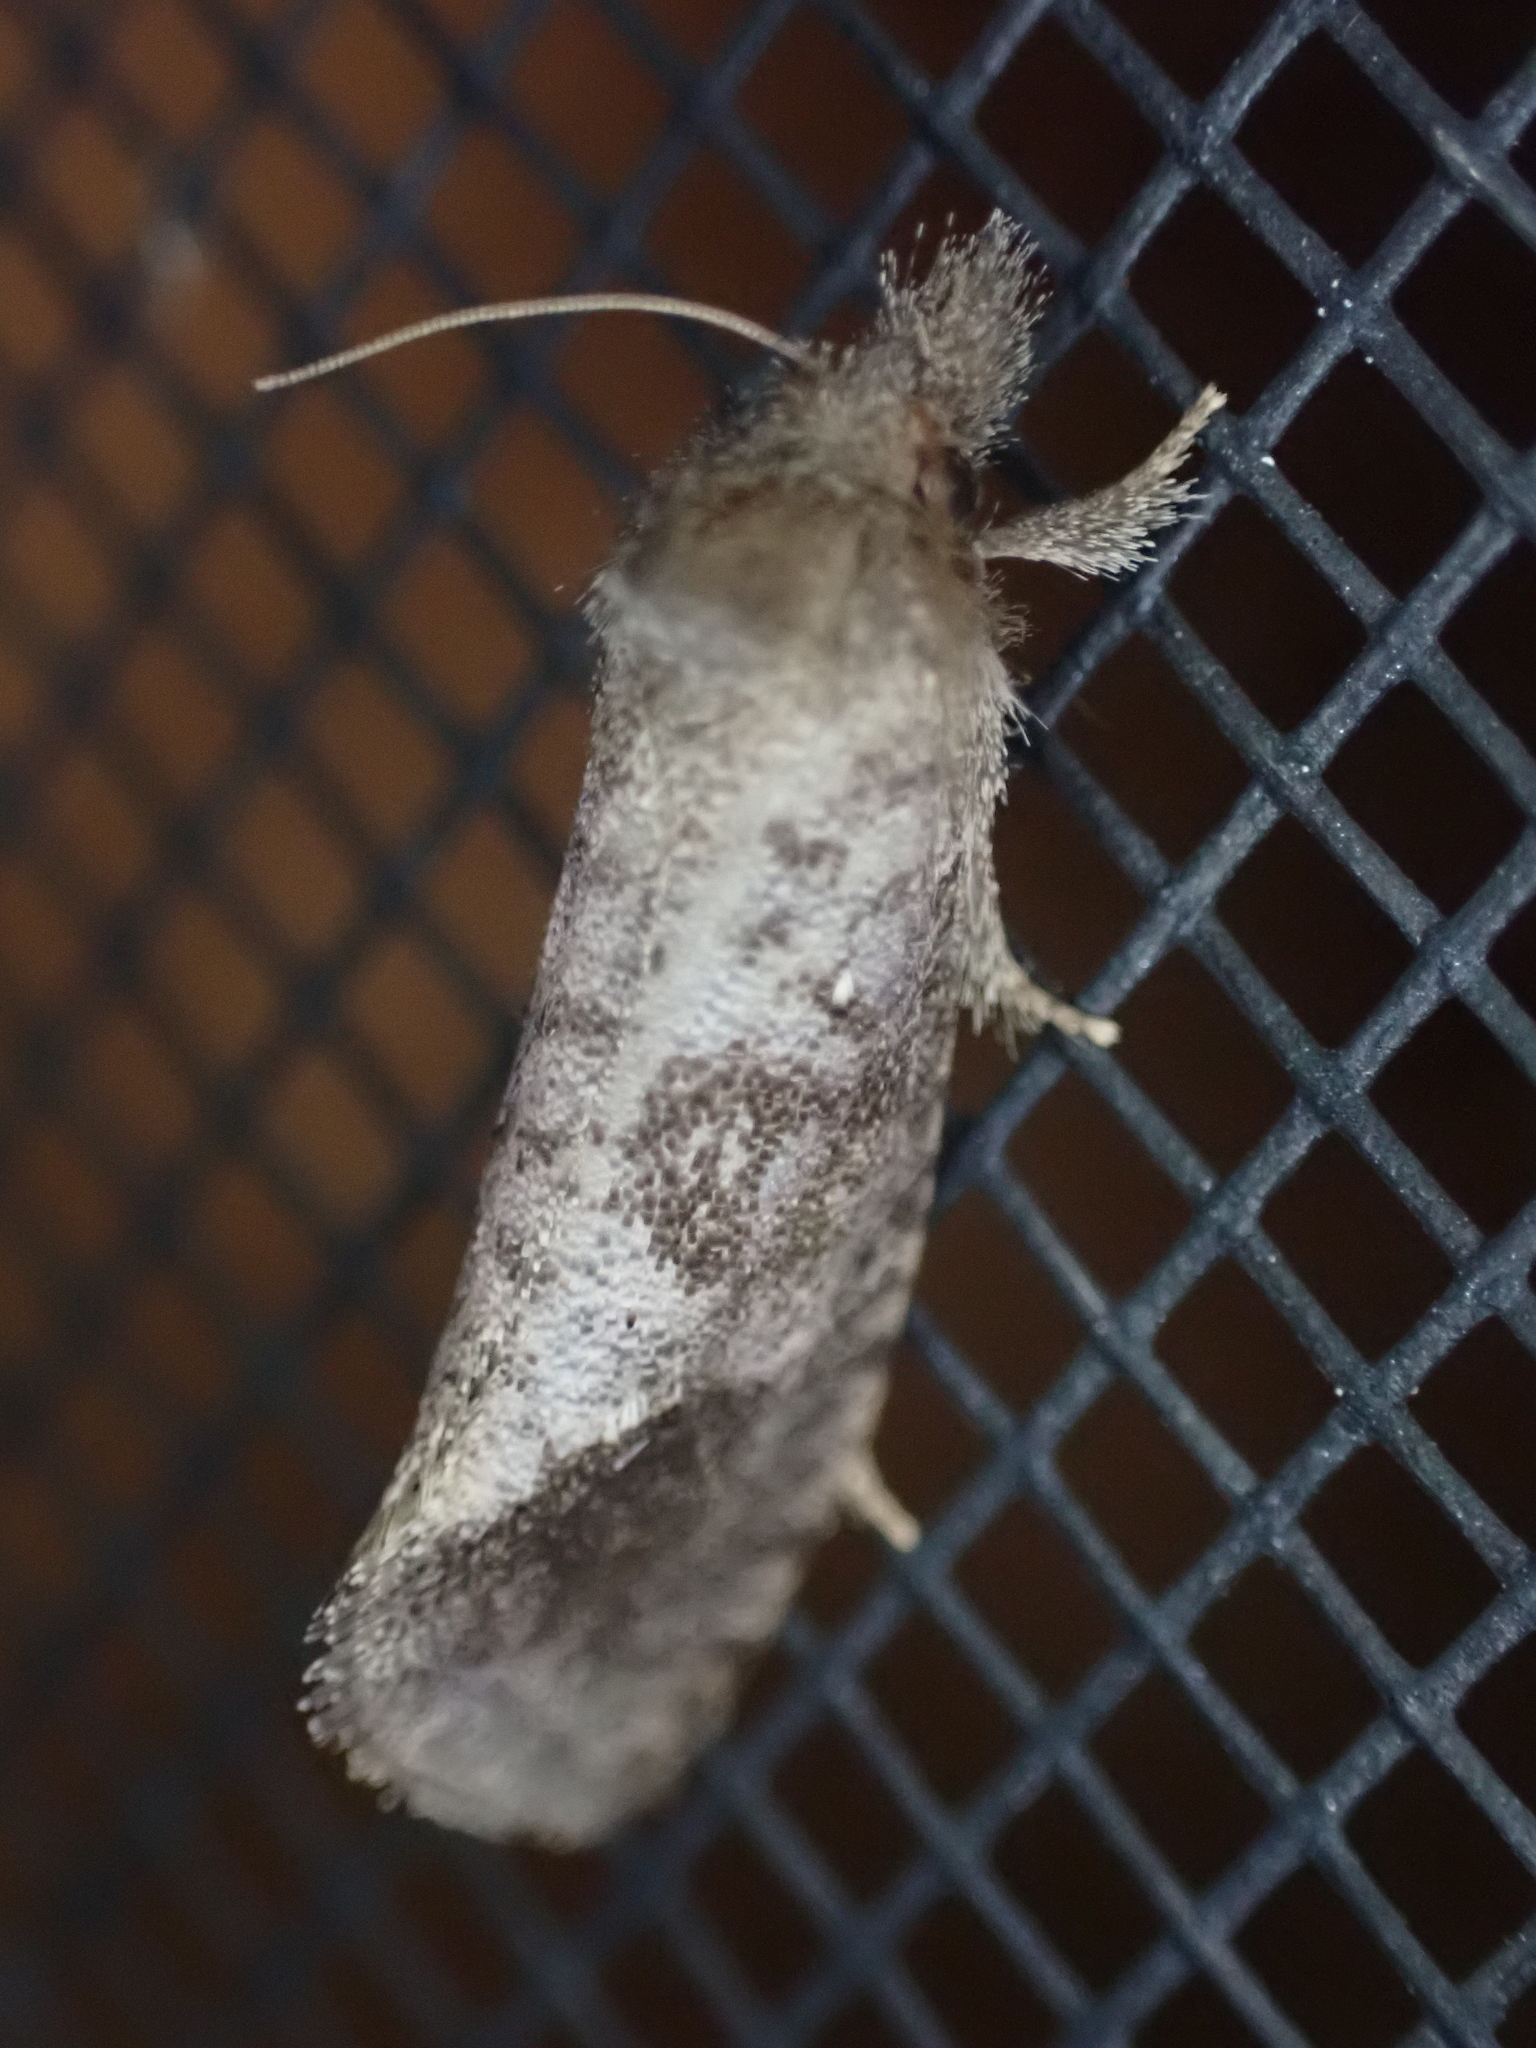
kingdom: Animalia
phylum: Arthropoda
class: Insecta
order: Lepidoptera
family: Tineidae
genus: Acrolophus
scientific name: Acrolophus texanella
